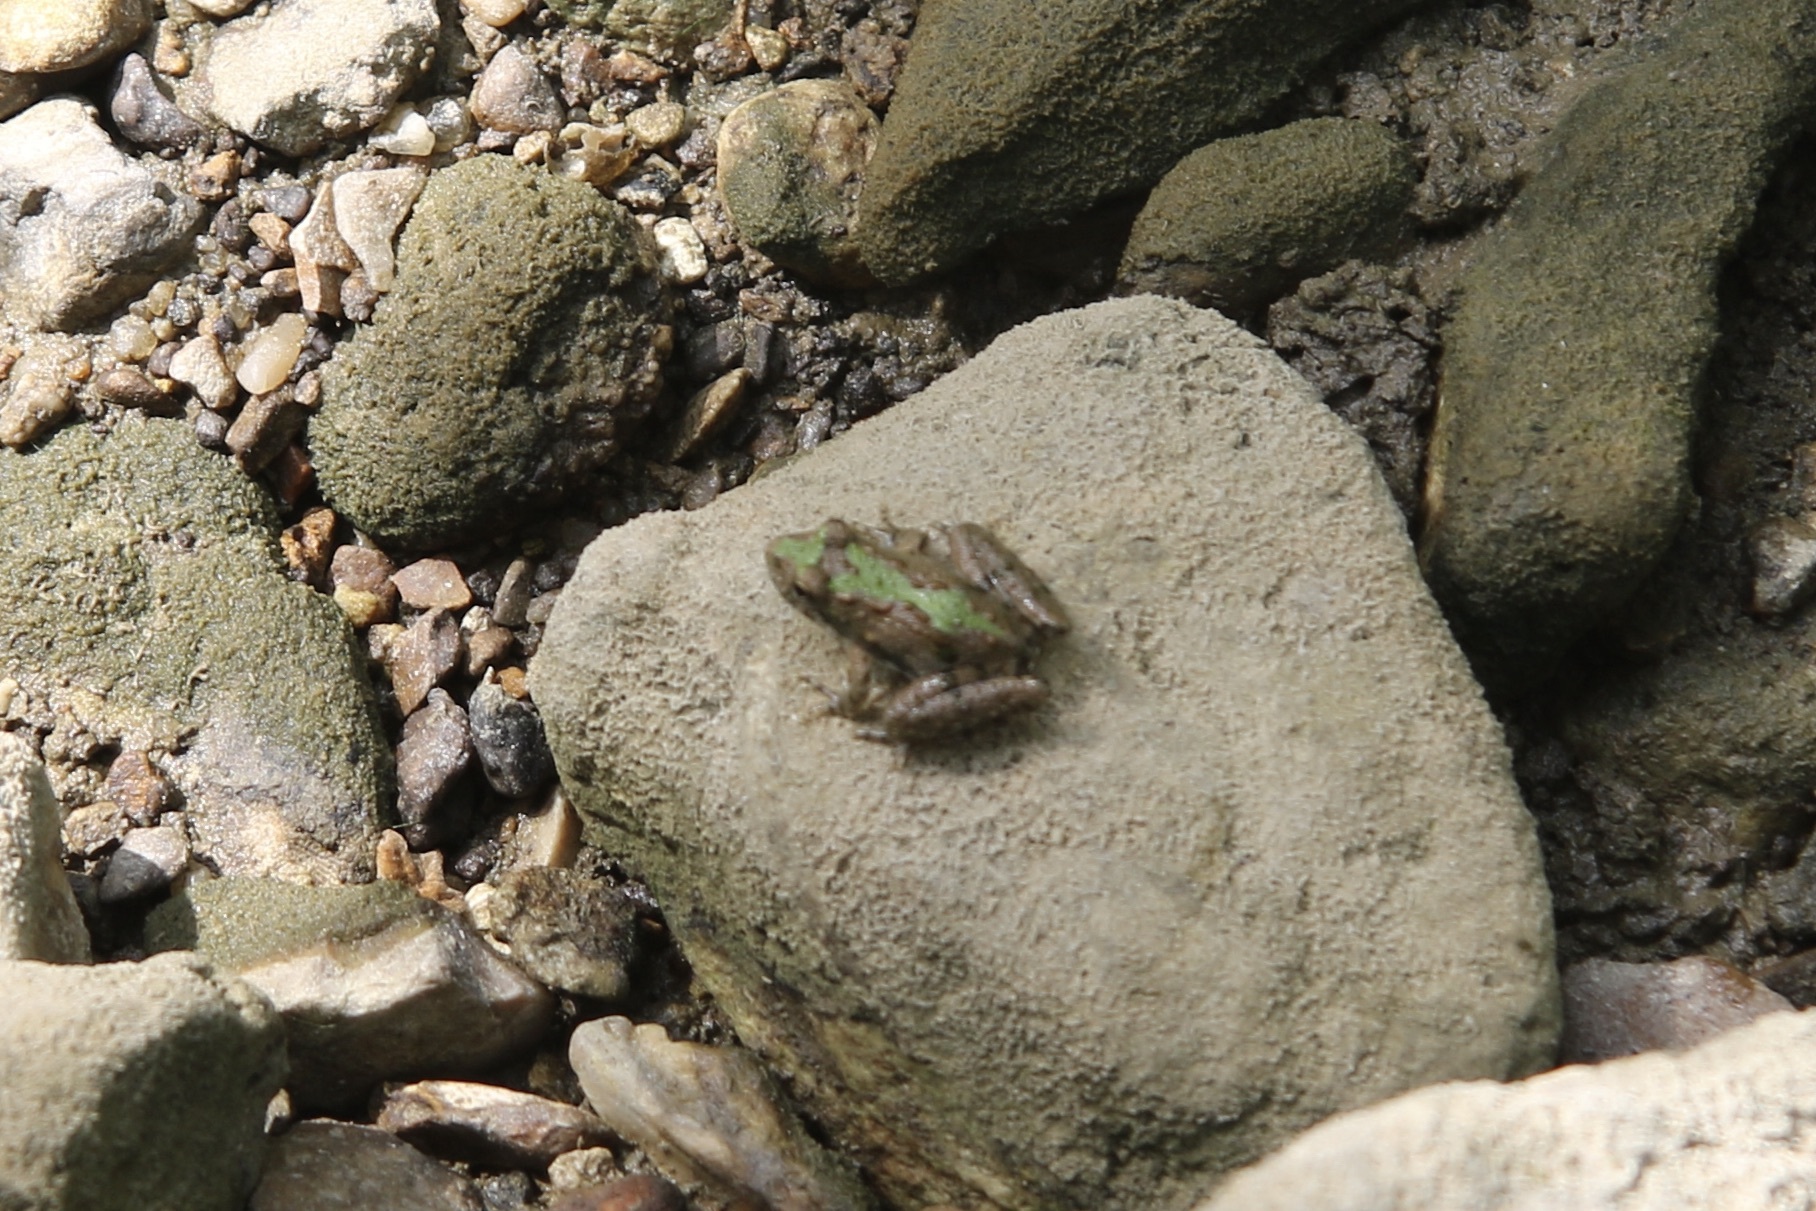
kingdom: Animalia
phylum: Chordata
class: Amphibia
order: Anura
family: Hylidae
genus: Acris
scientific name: Acris blanchardi
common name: Blanchard's cricket frog
